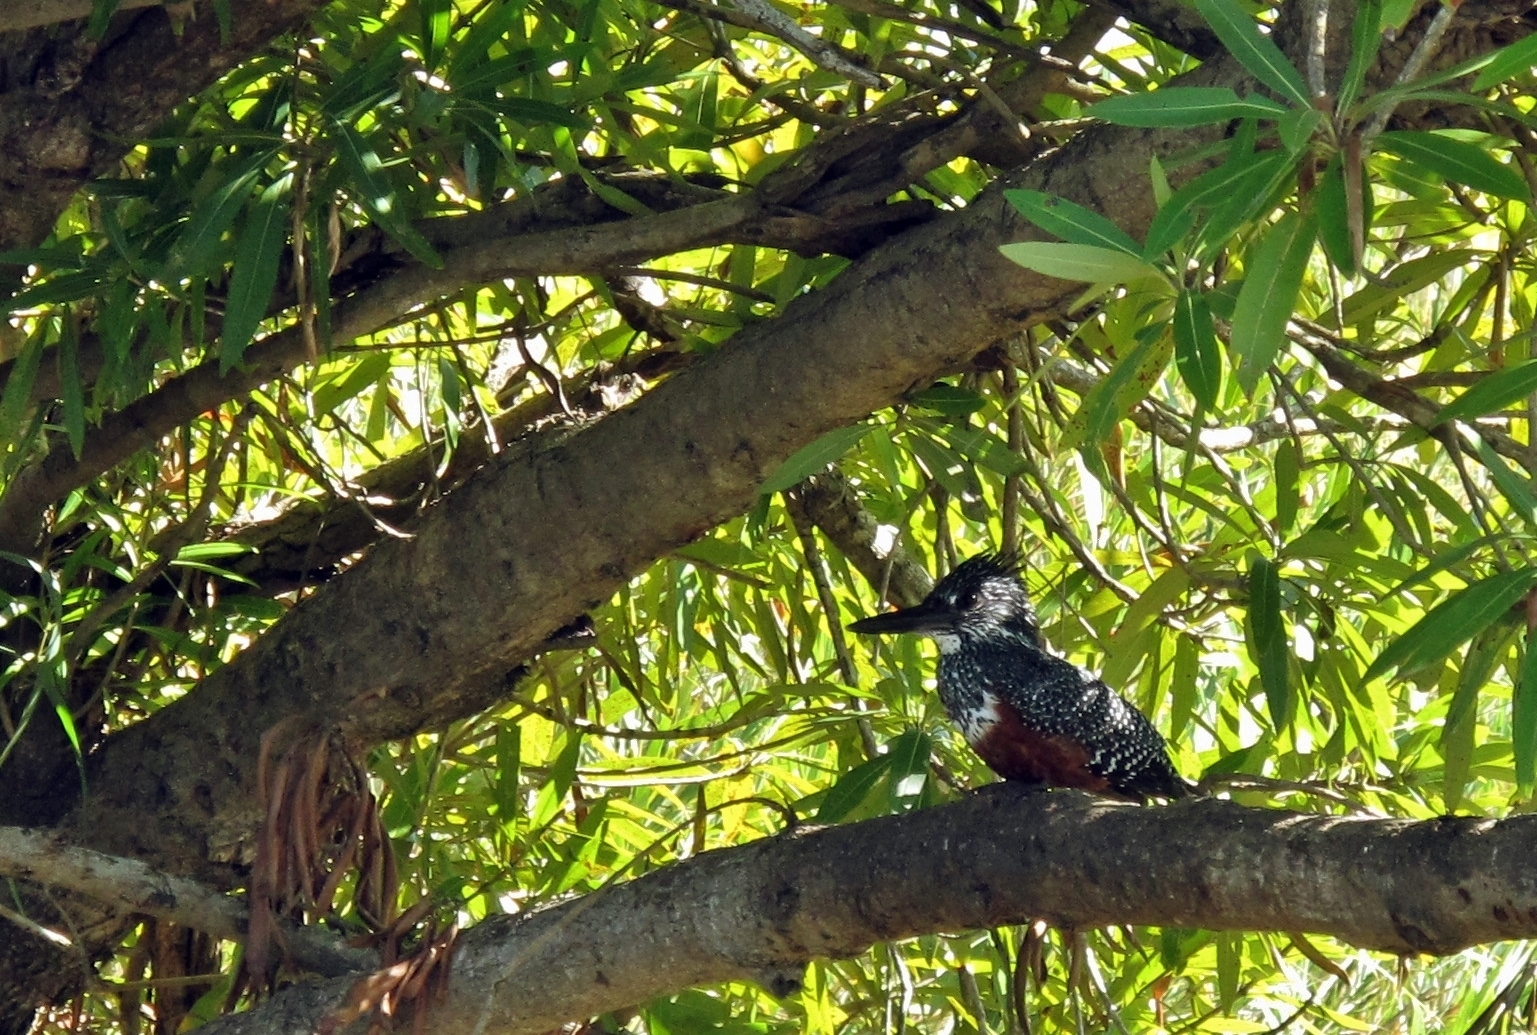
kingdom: Animalia
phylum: Chordata
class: Aves
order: Coraciiformes
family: Alcedinidae
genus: Megaceryle
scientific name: Megaceryle maxima
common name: Giant kingfisher
